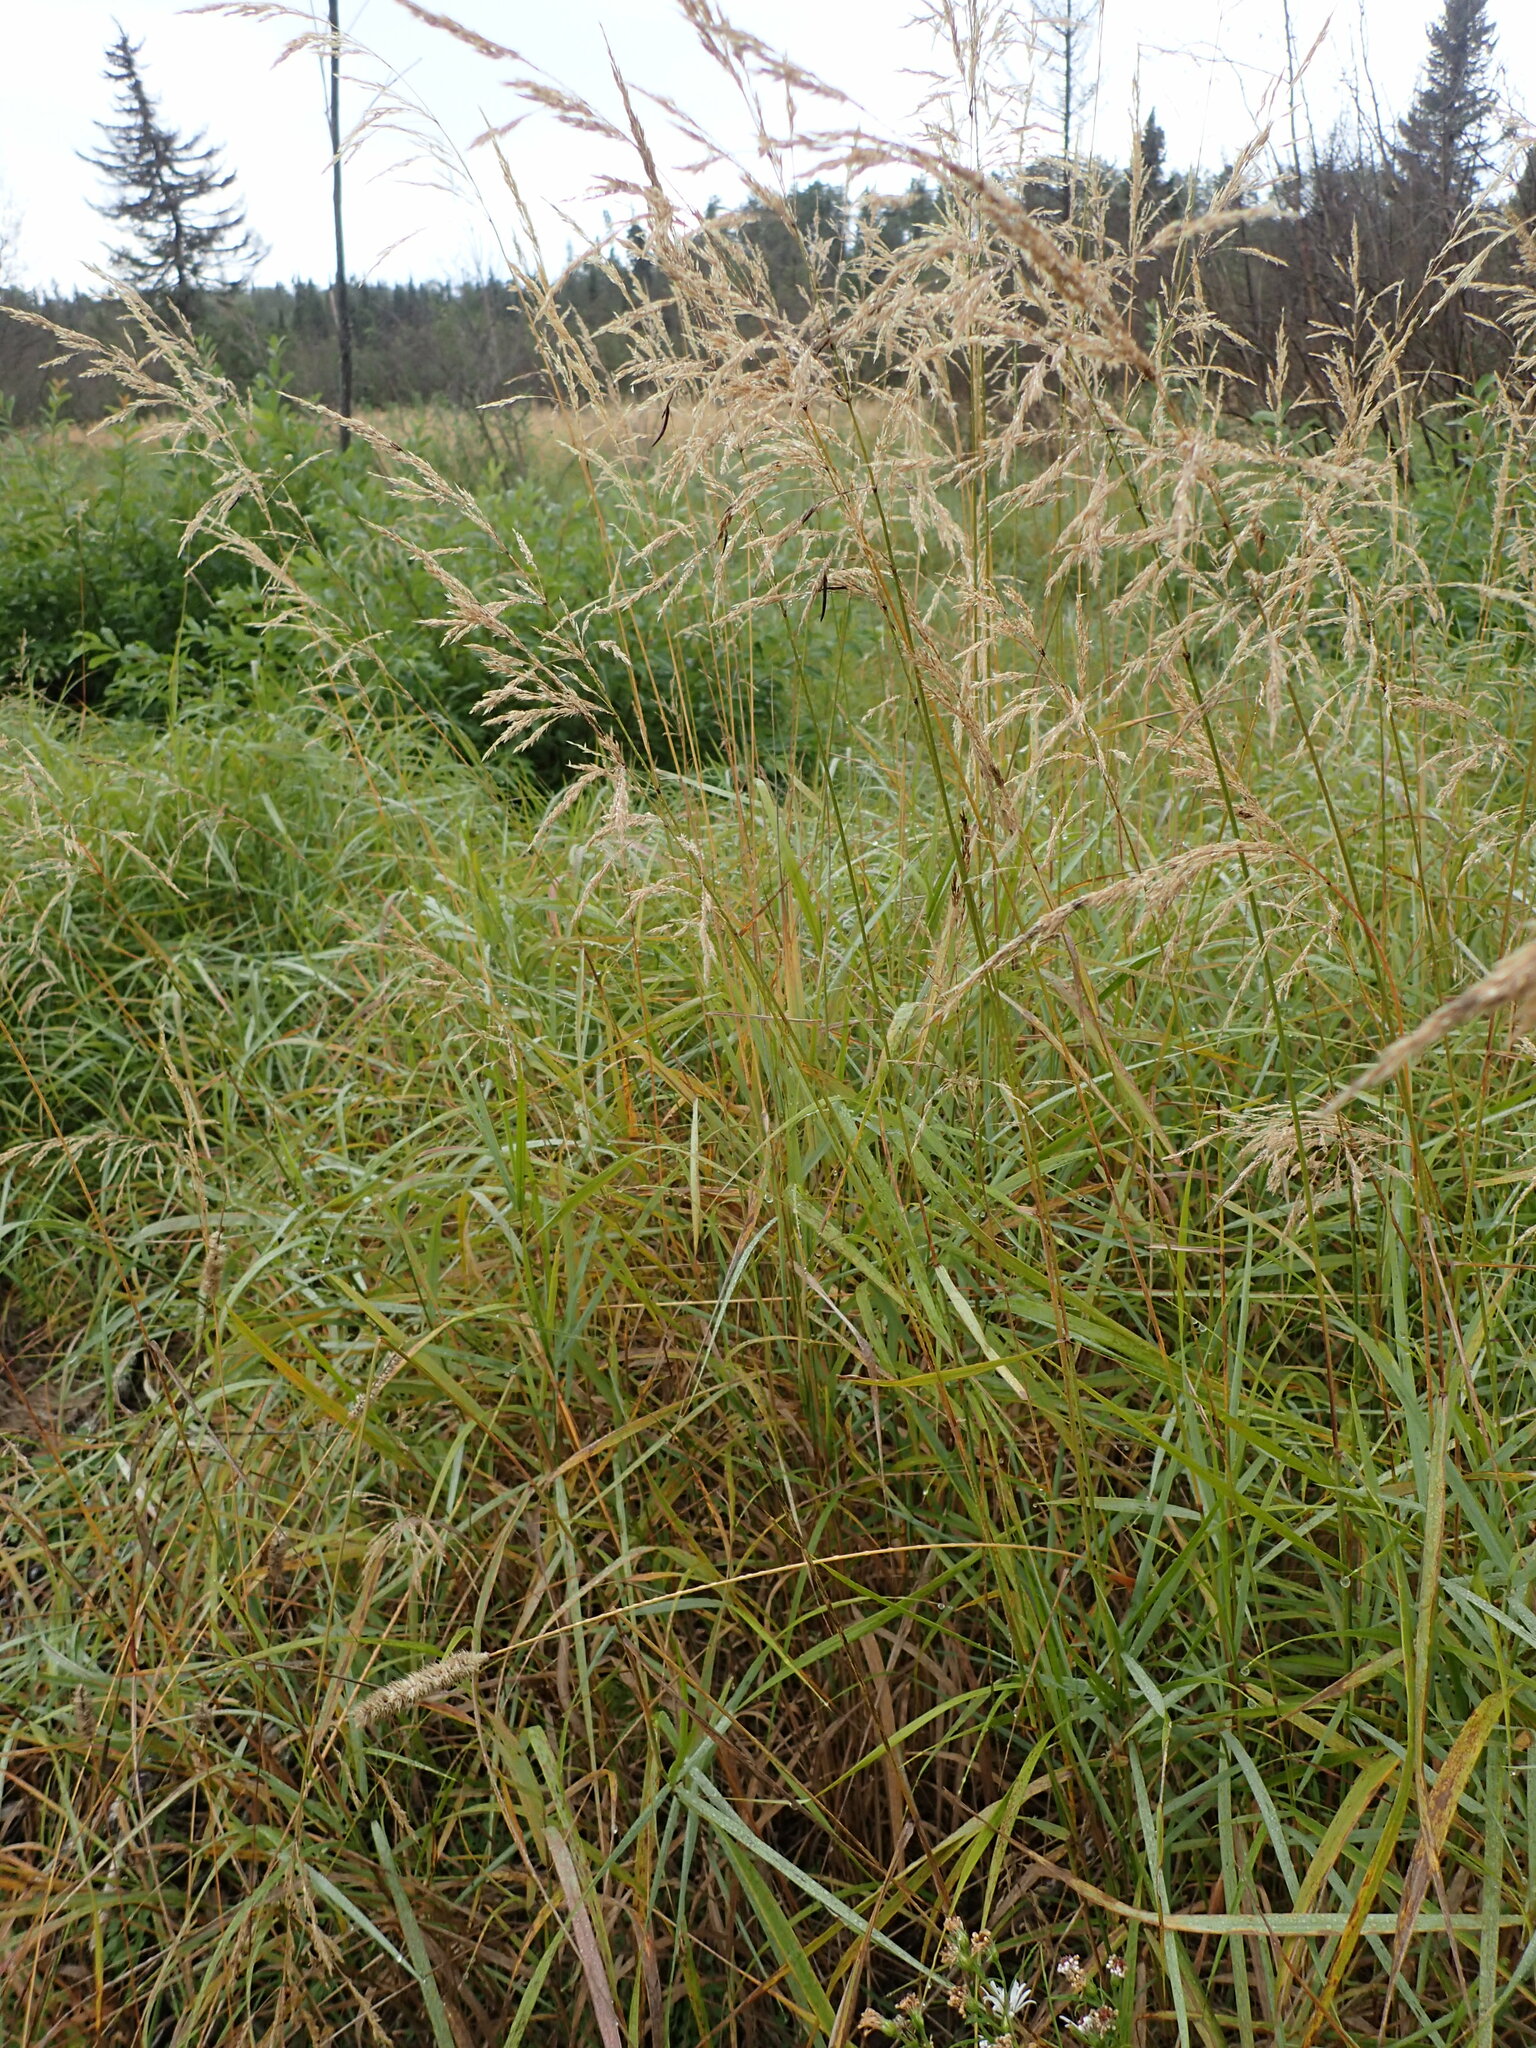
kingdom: Plantae
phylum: Tracheophyta
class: Liliopsida
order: Poales
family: Poaceae
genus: Calamagrostis
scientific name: Calamagrostis canadensis
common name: Canada bluejoint
